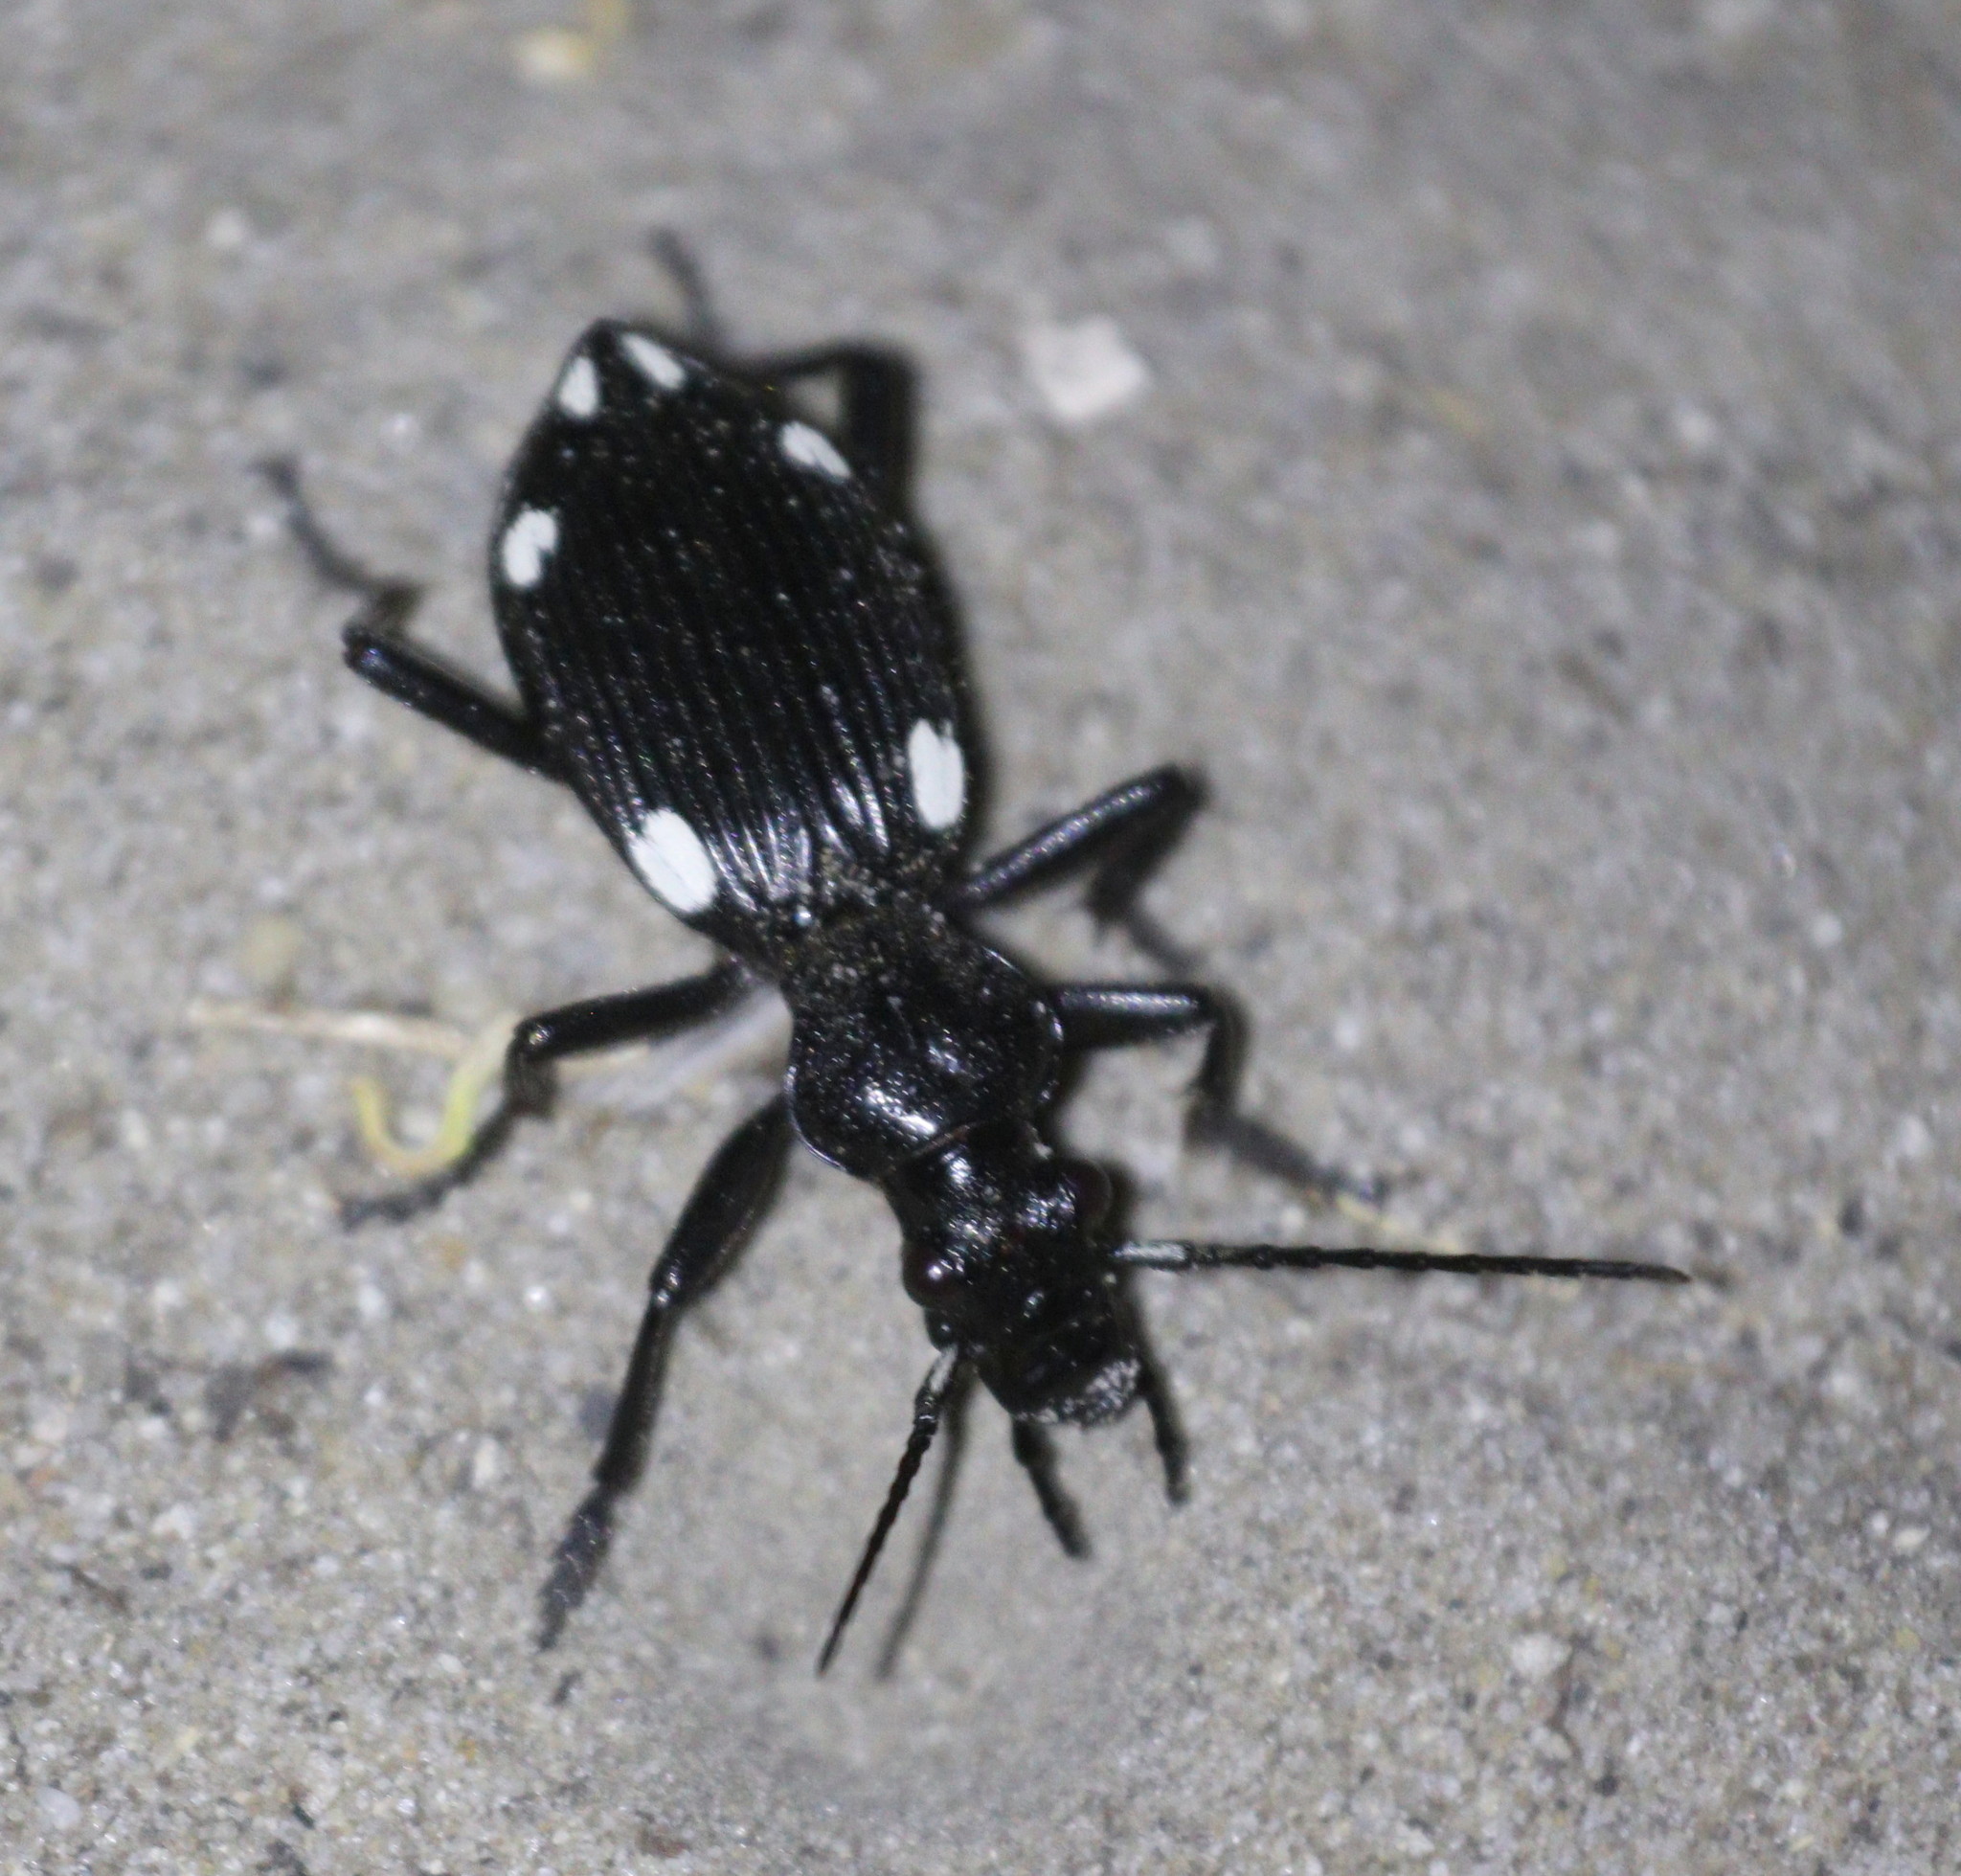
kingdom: Animalia
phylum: Arthropoda
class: Insecta
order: Coleoptera
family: Carabidae
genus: Anthia
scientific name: Anthia hexasticta
